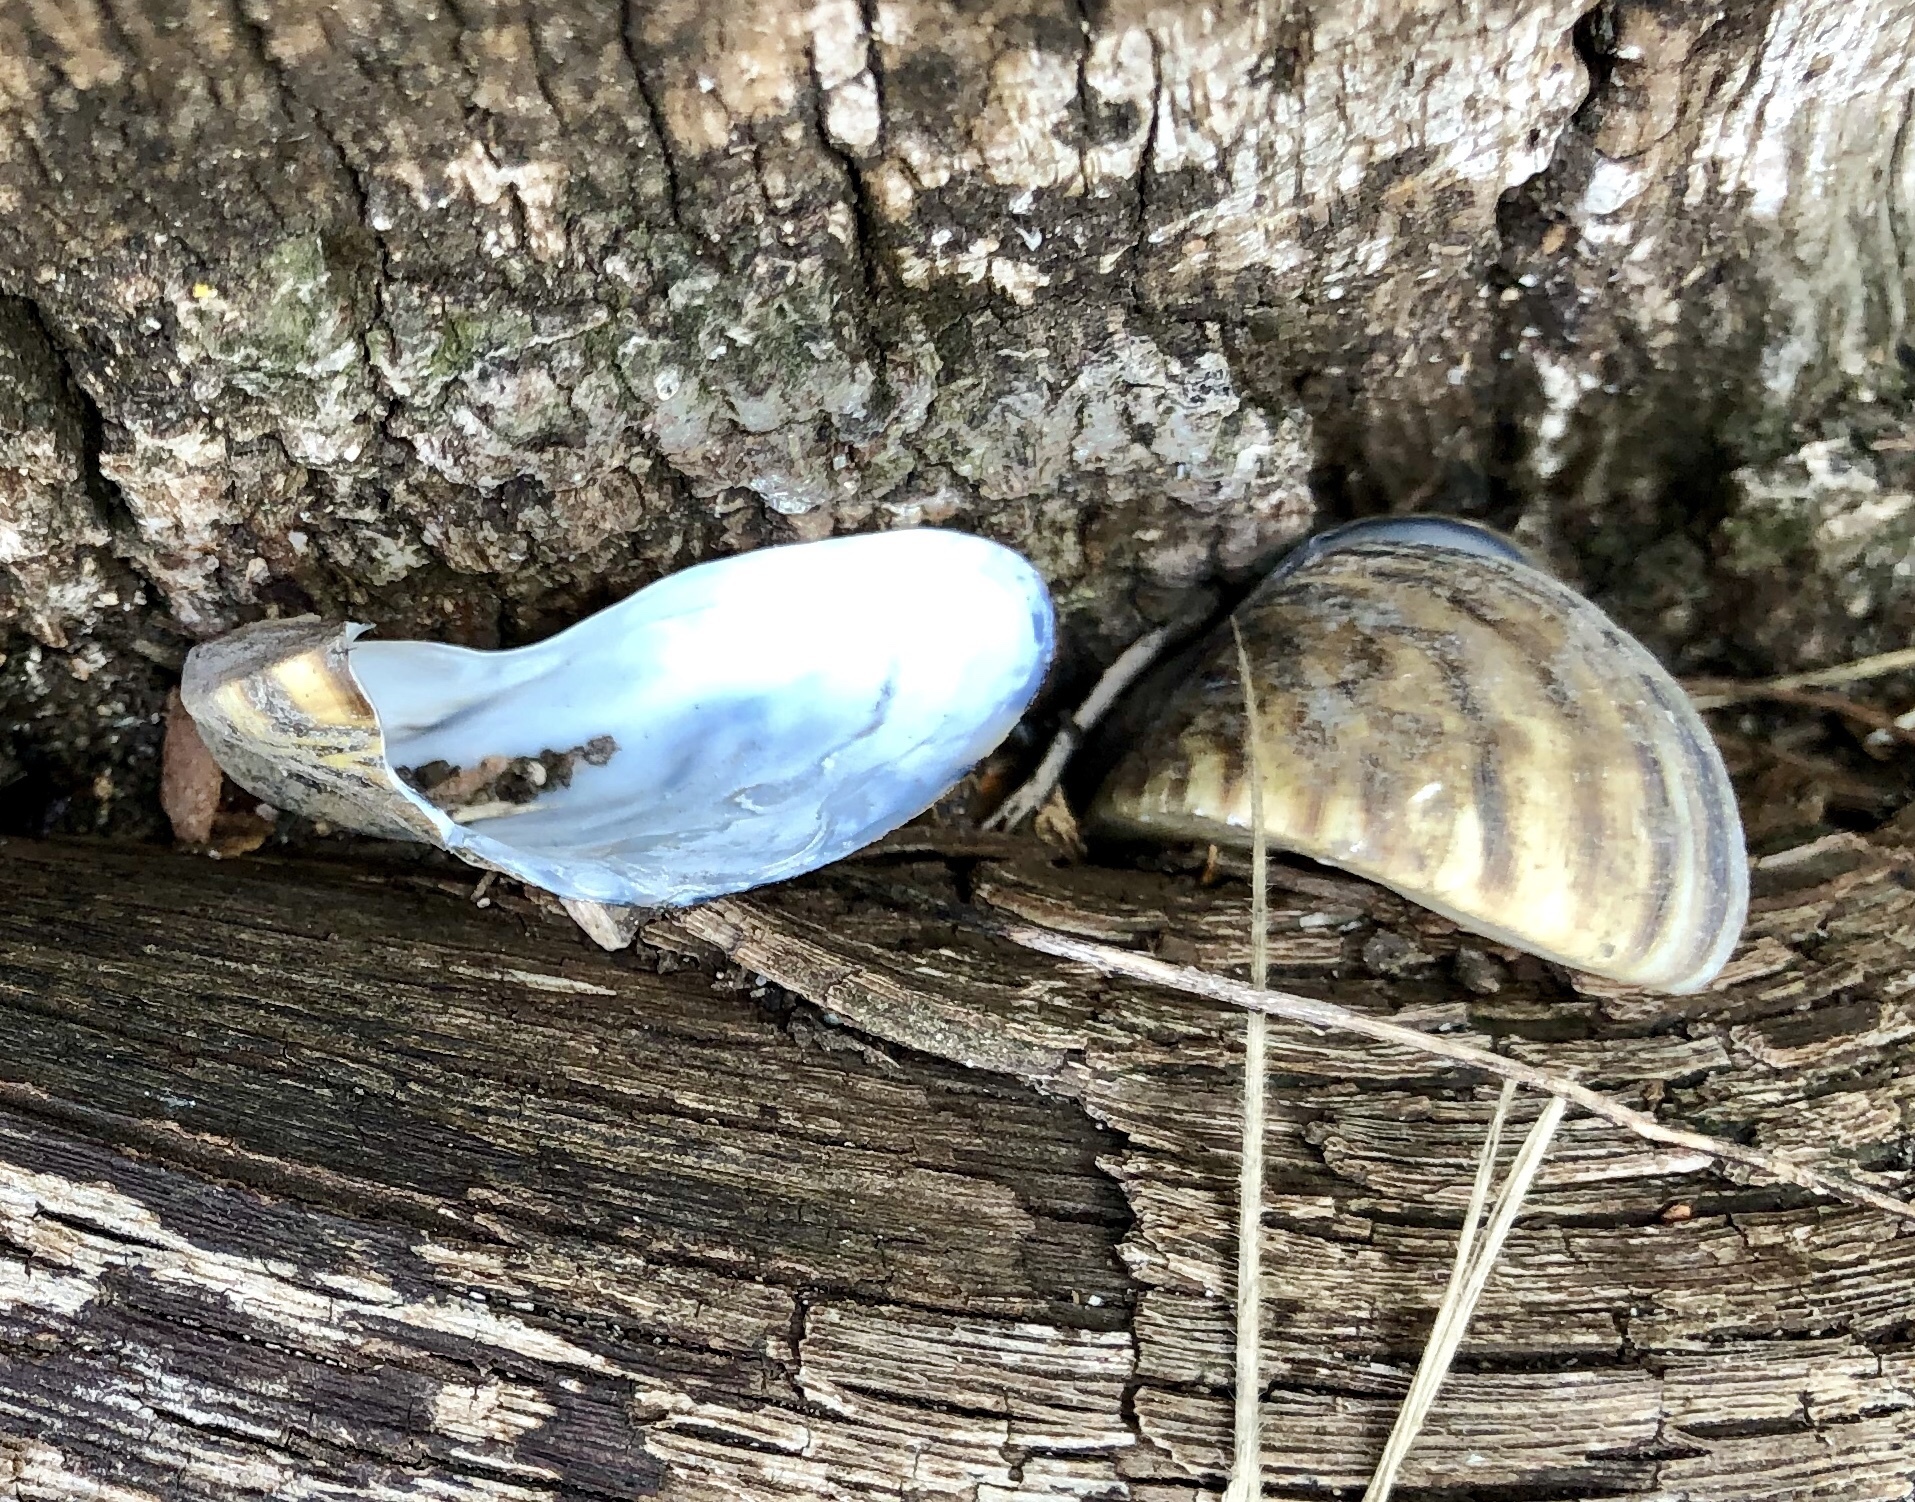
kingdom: Animalia
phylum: Mollusca
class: Bivalvia
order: Myida
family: Dreissenidae
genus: Dreissena
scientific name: Dreissena polymorpha
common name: Zebra mussel
